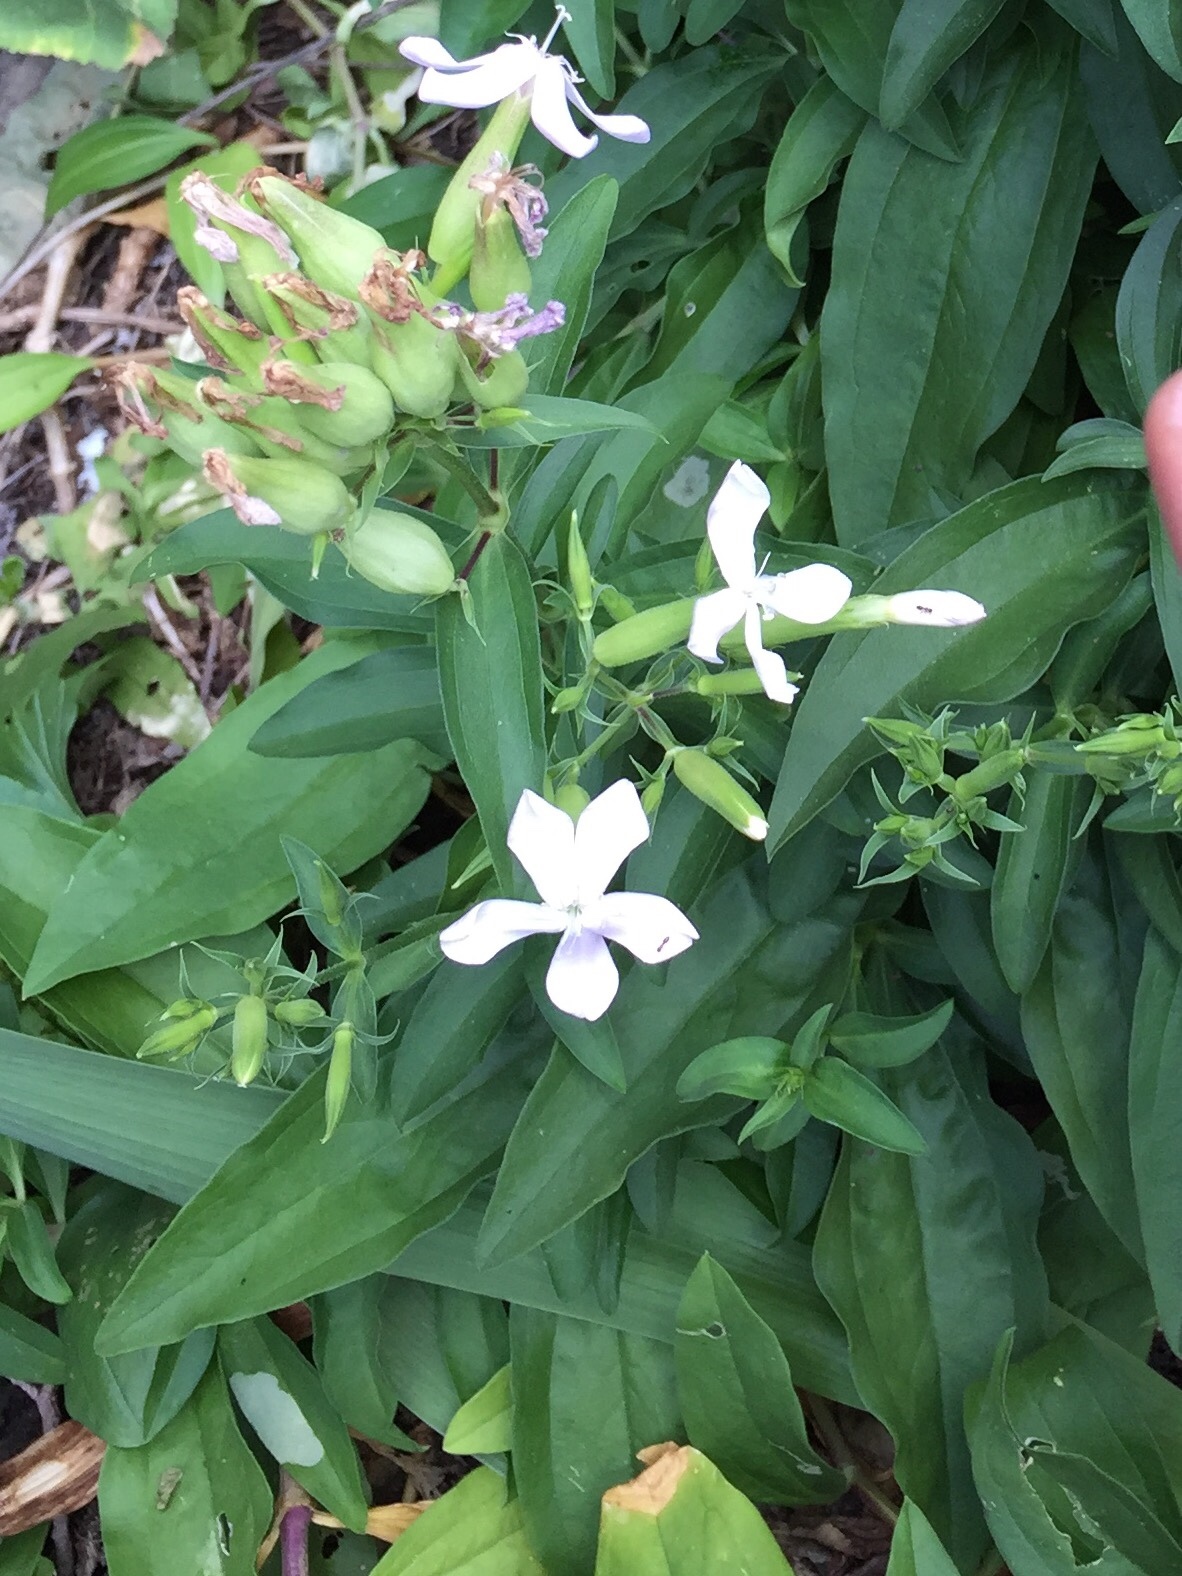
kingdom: Plantae
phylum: Tracheophyta
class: Magnoliopsida
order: Caryophyllales
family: Caryophyllaceae
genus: Saponaria
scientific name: Saponaria officinalis
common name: Soapwort
